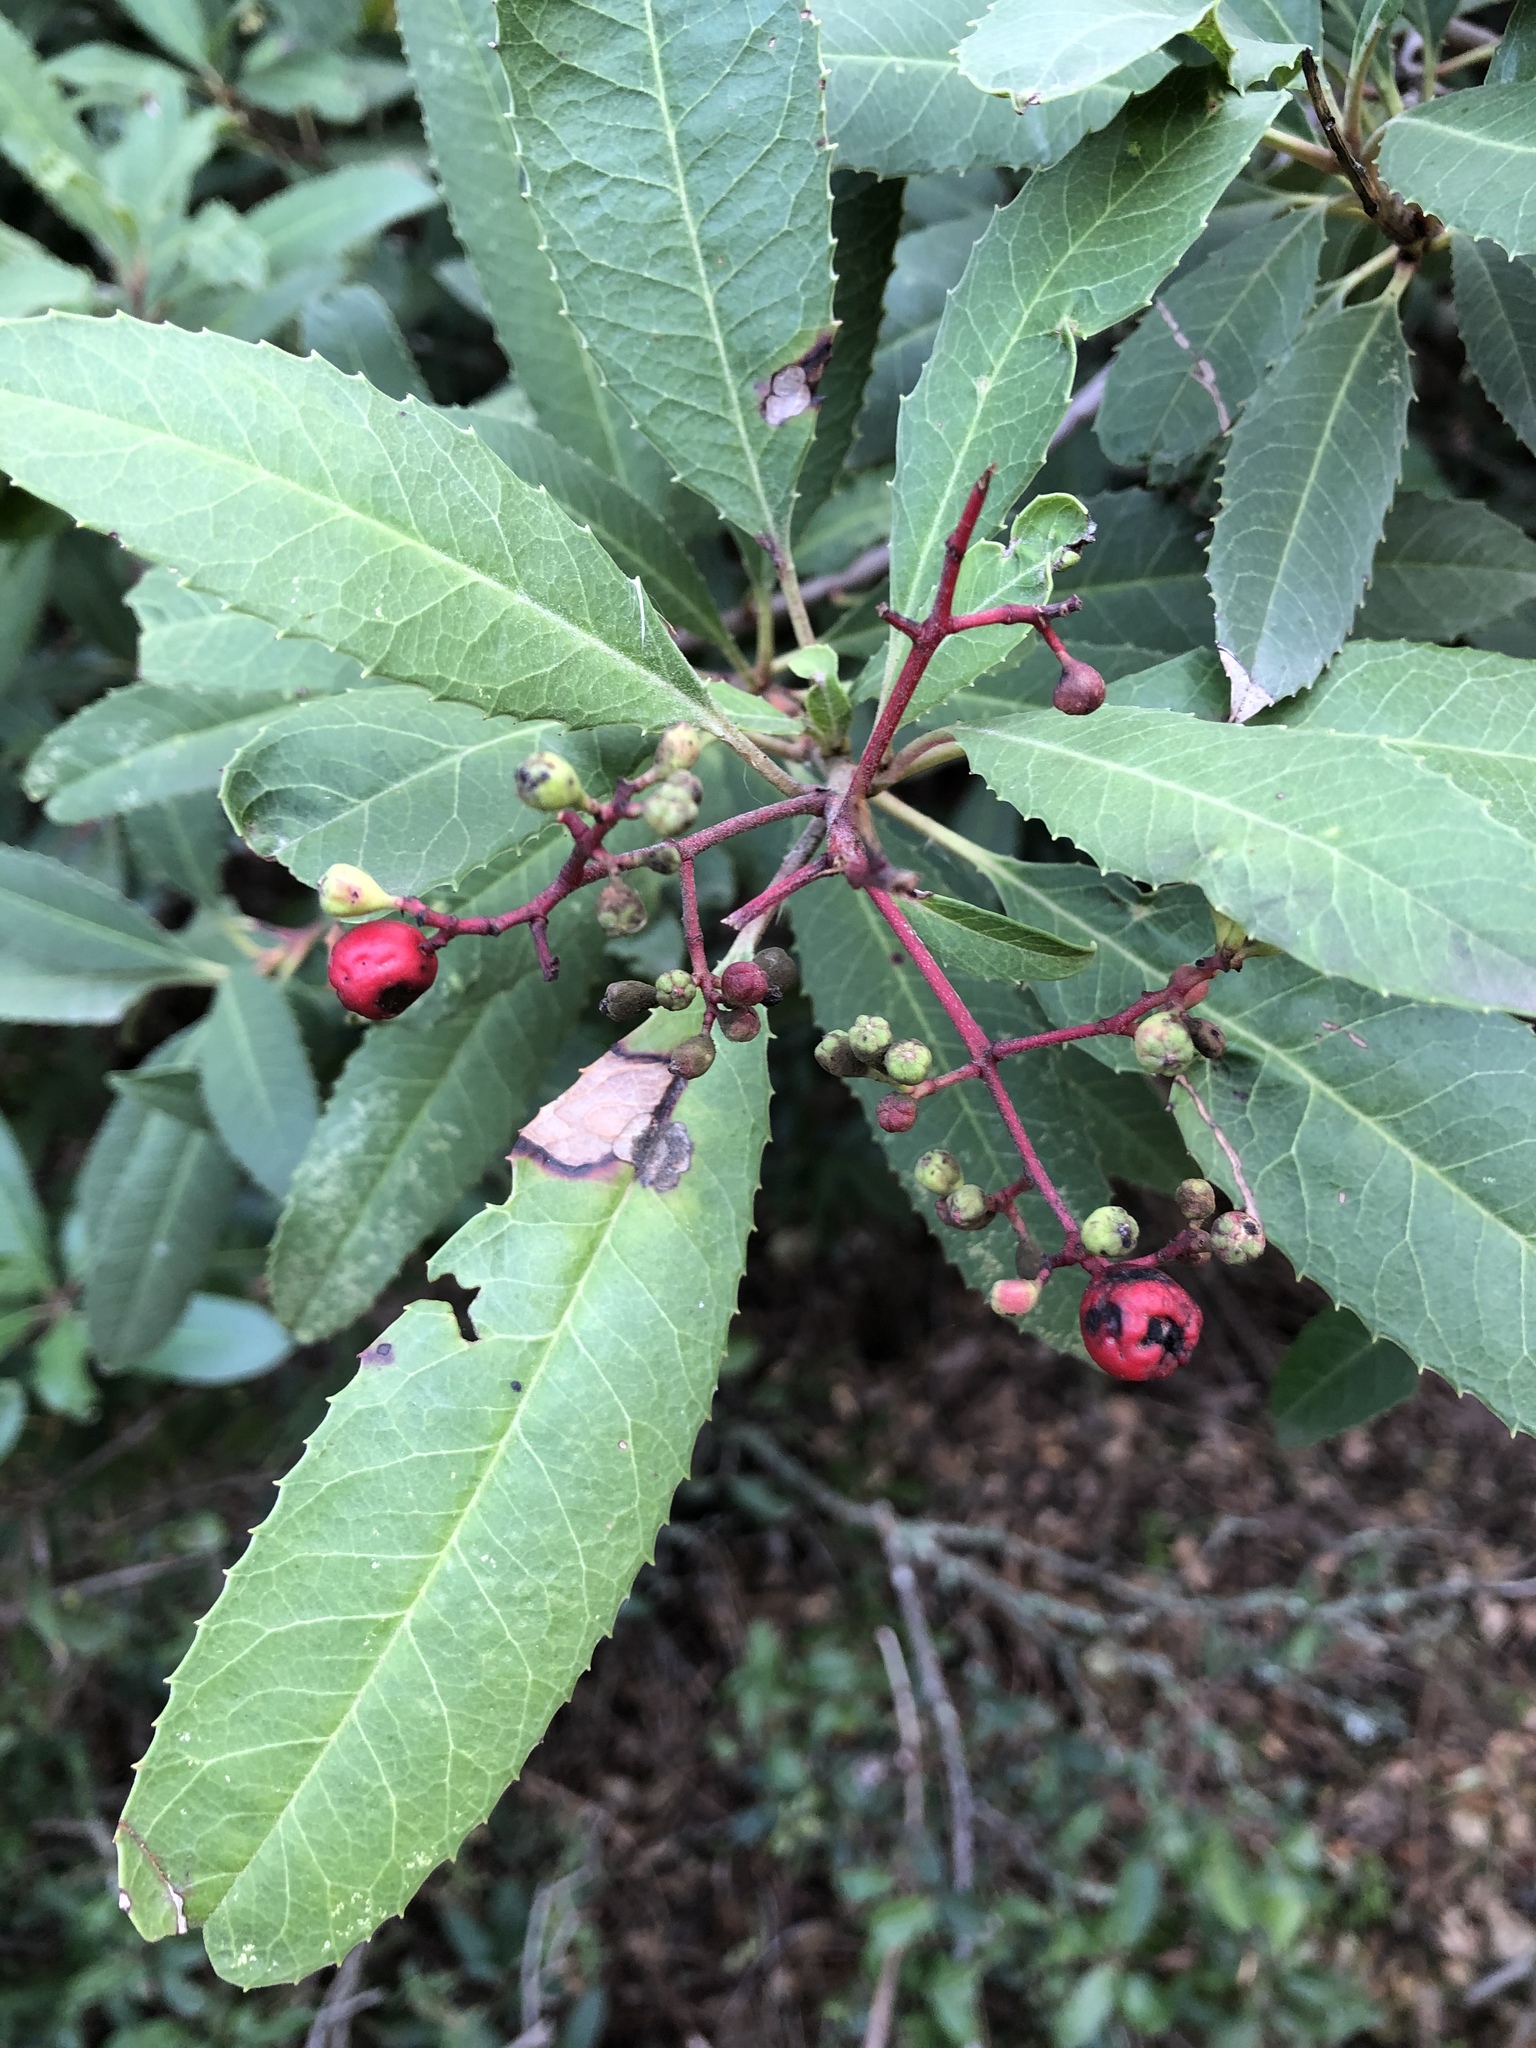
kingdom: Plantae
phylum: Tracheophyta
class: Magnoliopsida
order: Rosales
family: Rosaceae
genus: Heteromeles
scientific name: Heteromeles arbutifolia
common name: California-holly
